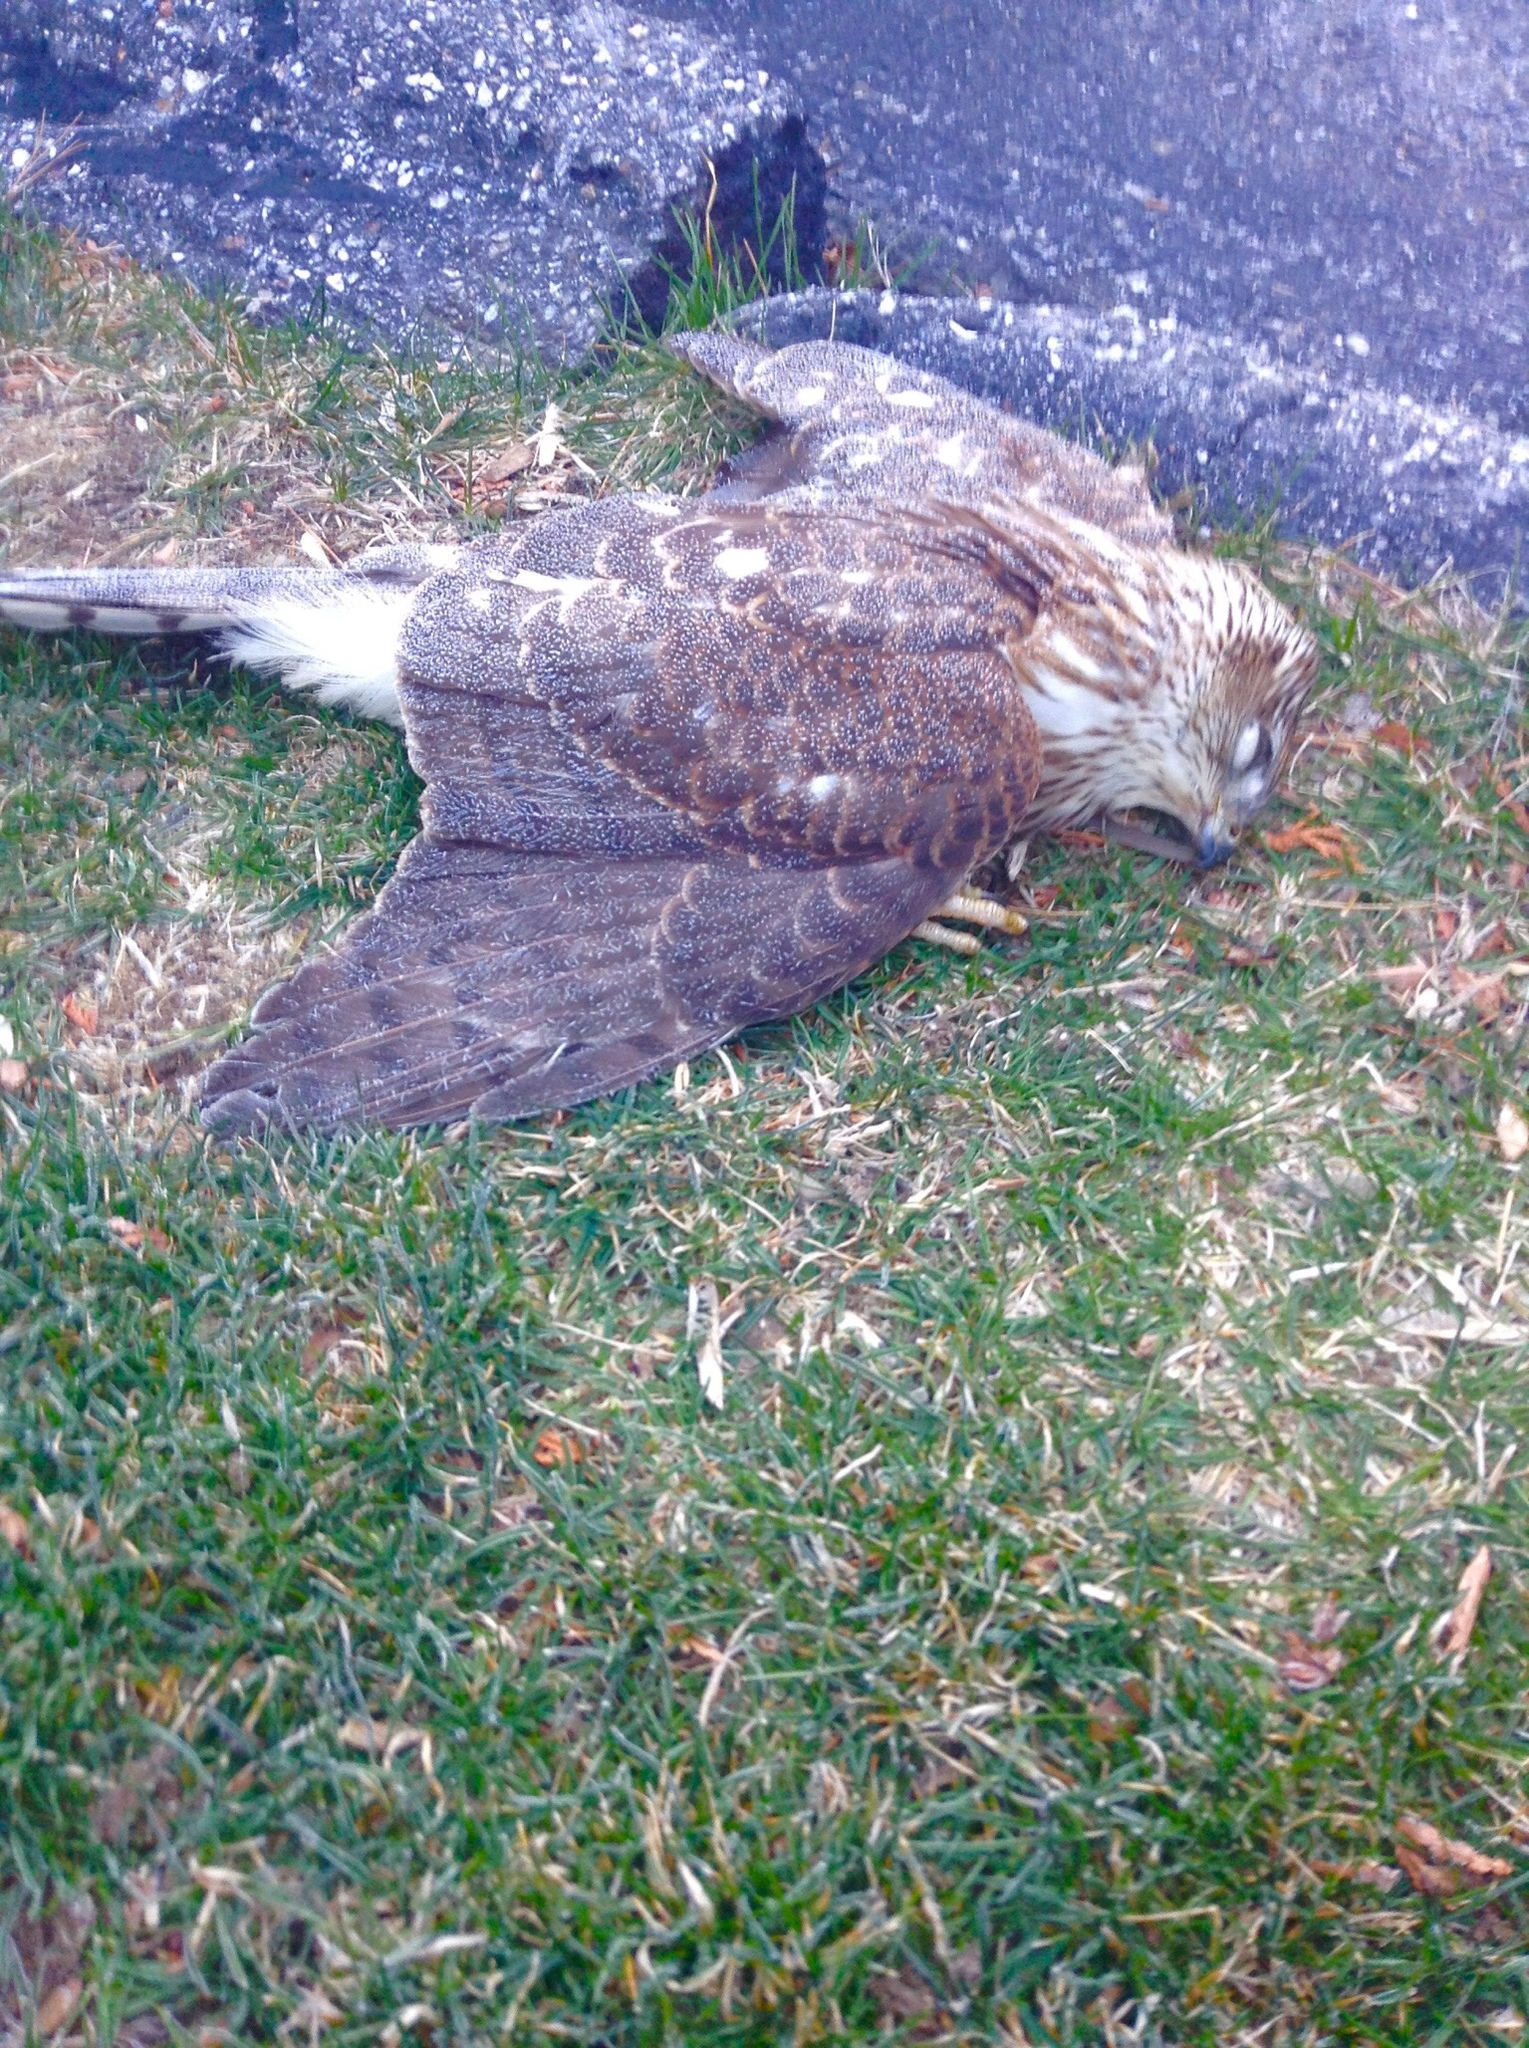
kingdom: Animalia
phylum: Chordata
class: Aves
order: Accipitriformes
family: Accipitridae
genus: Accipiter
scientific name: Accipiter cooperii
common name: Cooper's hawk
